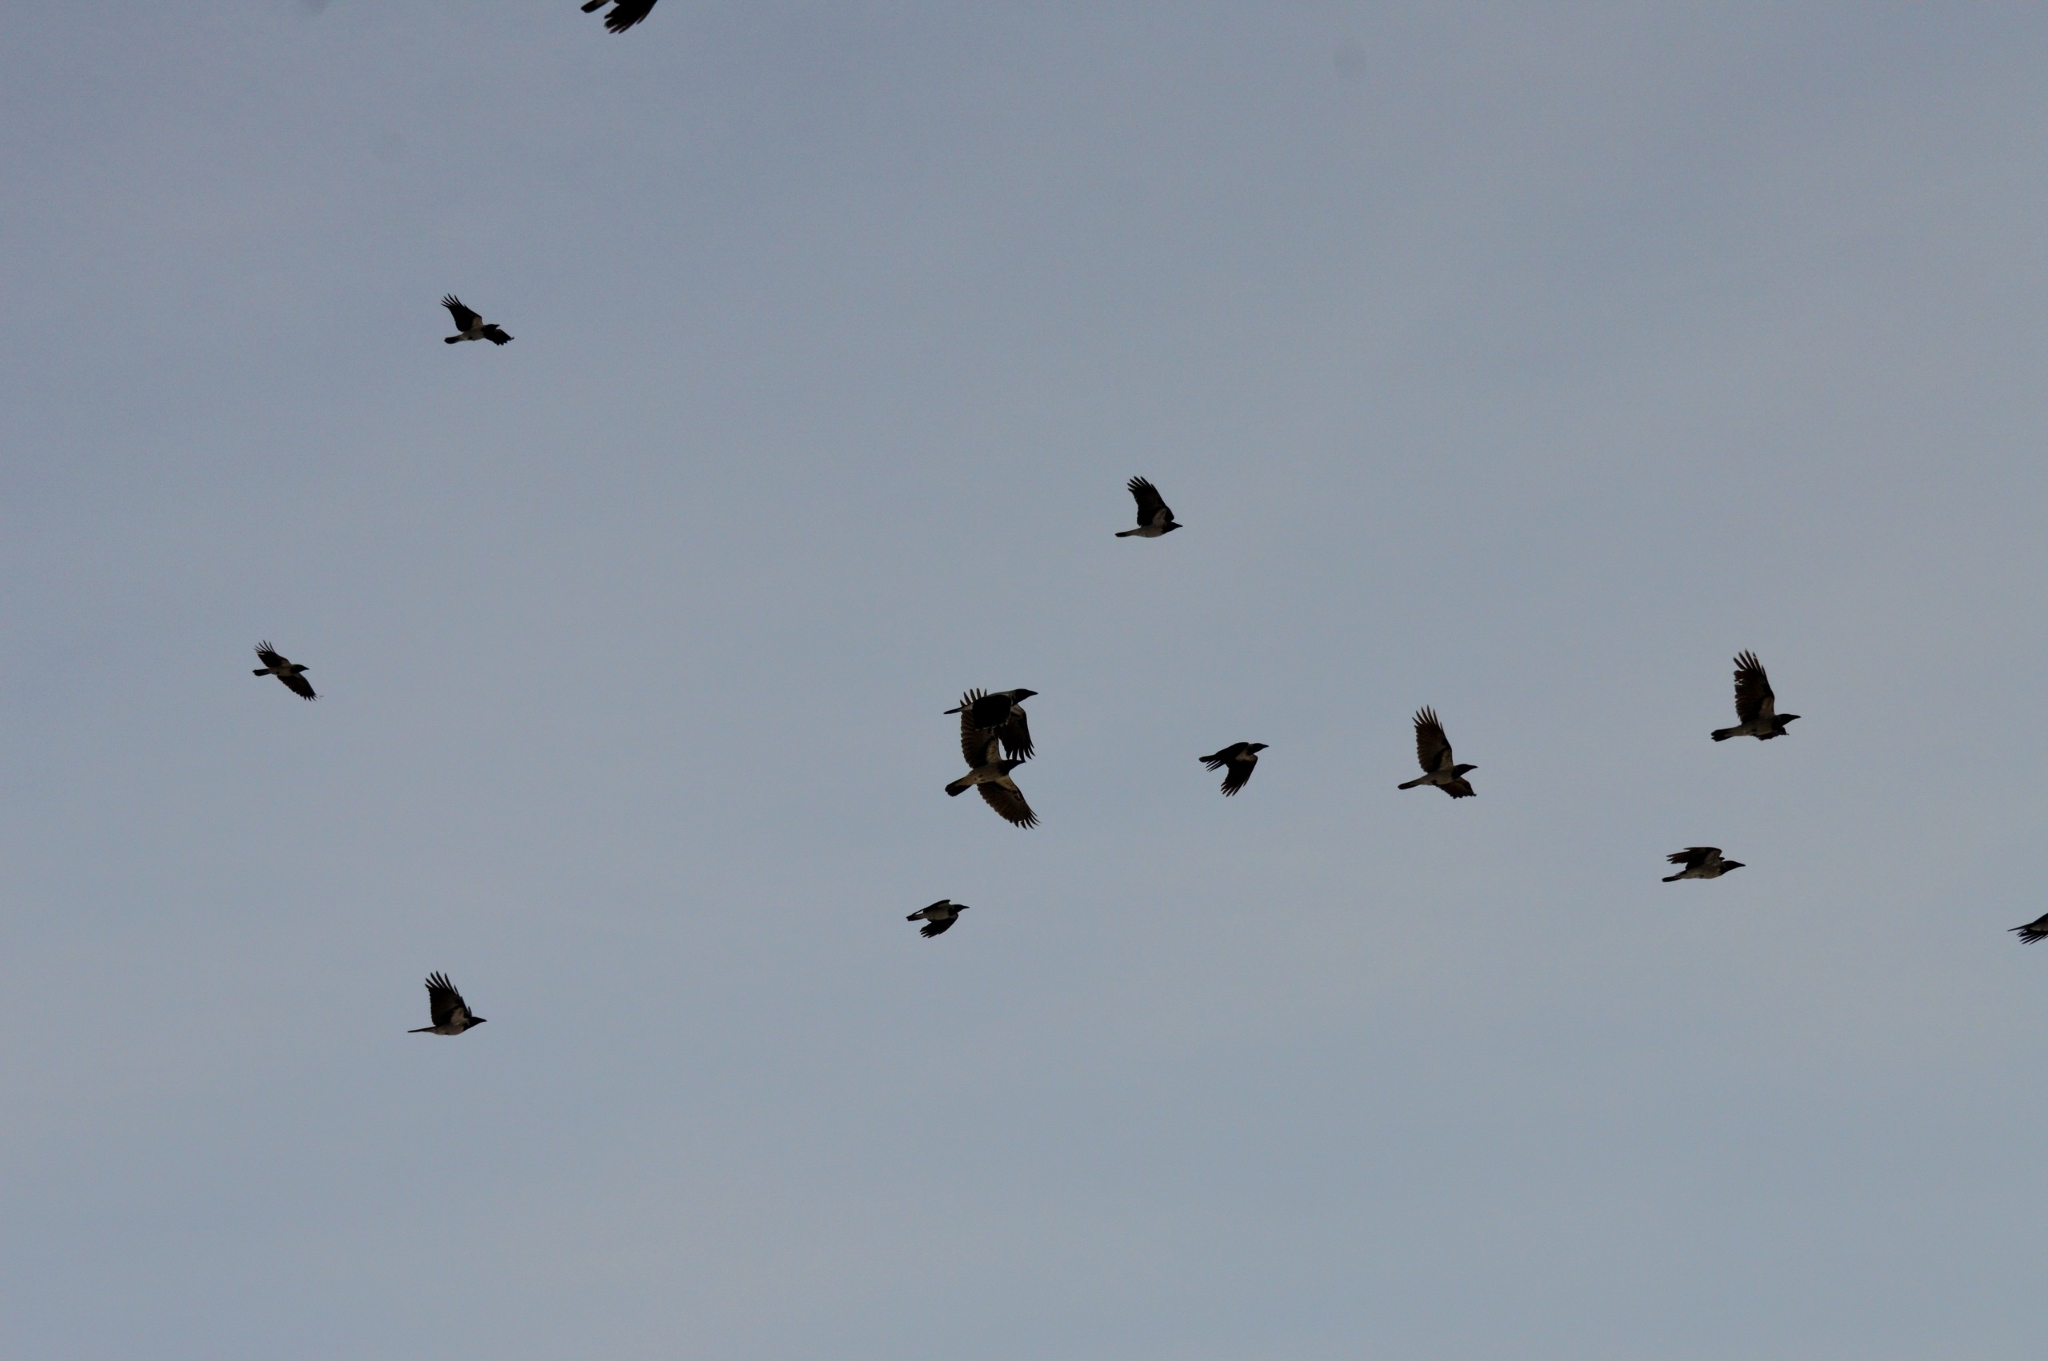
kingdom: Animalia
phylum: Chordata
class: Aves
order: Passeriformes
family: Corvidae
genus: Corvus
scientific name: Corvus cornix
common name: Hooded crow
